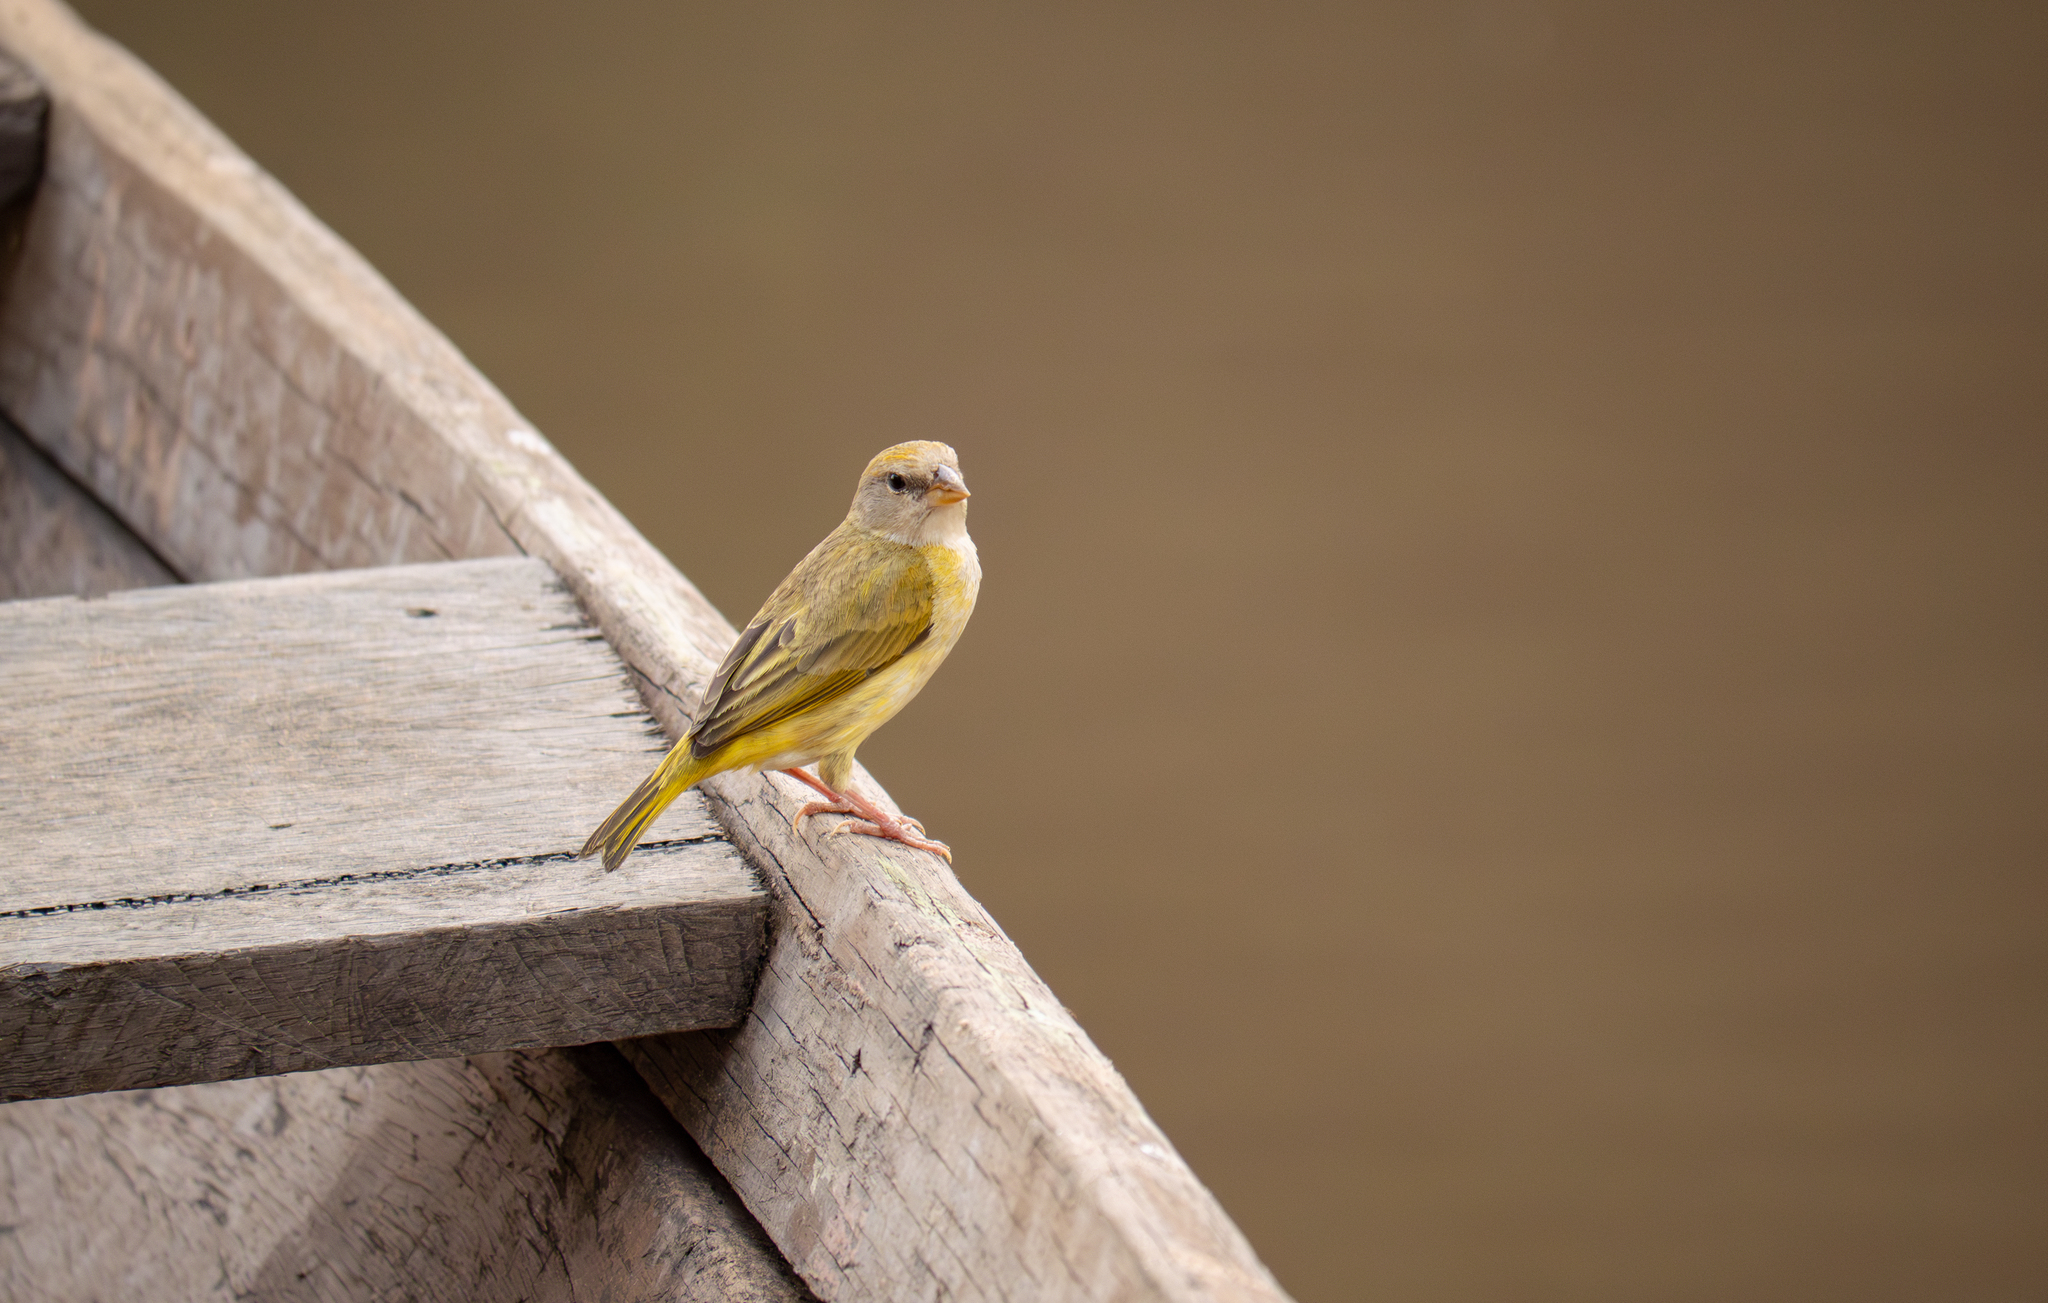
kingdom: Animalia
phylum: Chordata
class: Aves
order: Passeriformes
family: Thraupidae
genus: Sicalis
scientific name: Sicalis columbiana
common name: Orange-fronted yellow-finch
